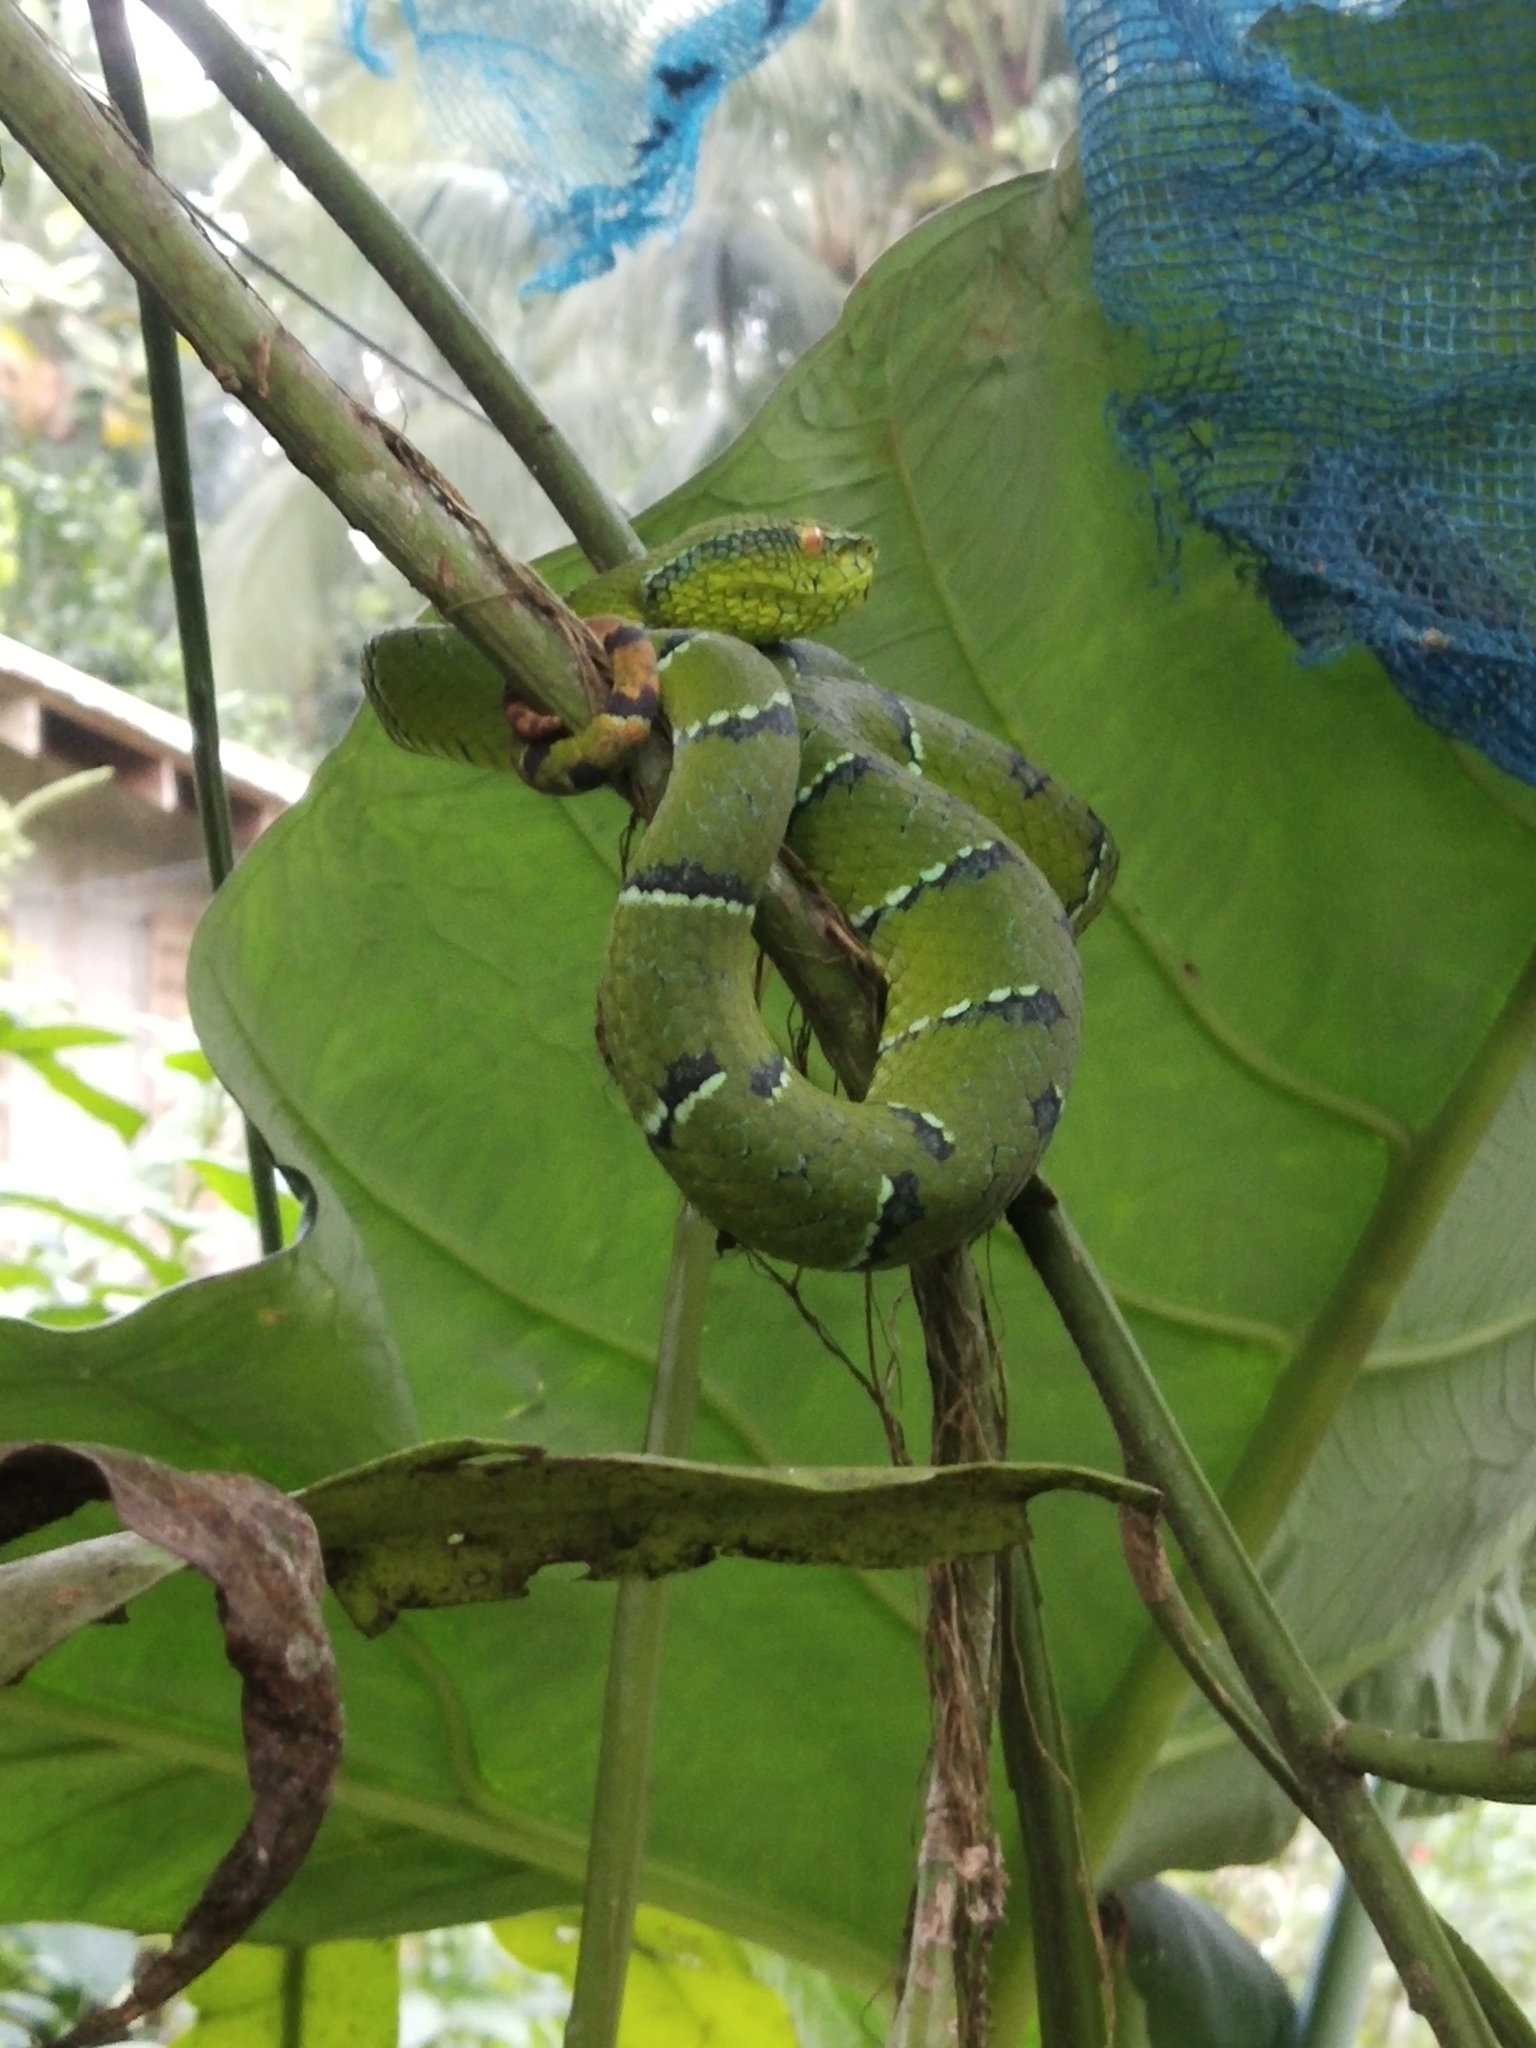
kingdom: Animalia
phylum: Chordata
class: Squamata
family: Viperidae
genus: Tropidolaemus
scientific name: Tropidolaemus subannulatus
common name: North philippine temple pitviper
